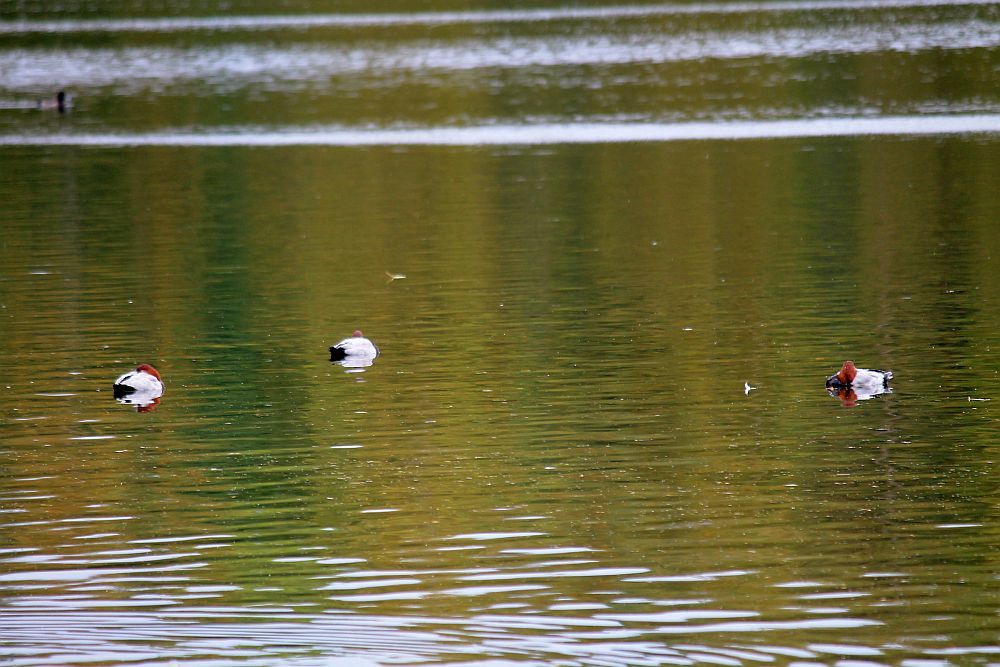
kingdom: Animalia
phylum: Chordata
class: Aves
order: Anseriformes
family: Anatidae
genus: Aythya
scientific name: Aythya ferina
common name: Common pochard
